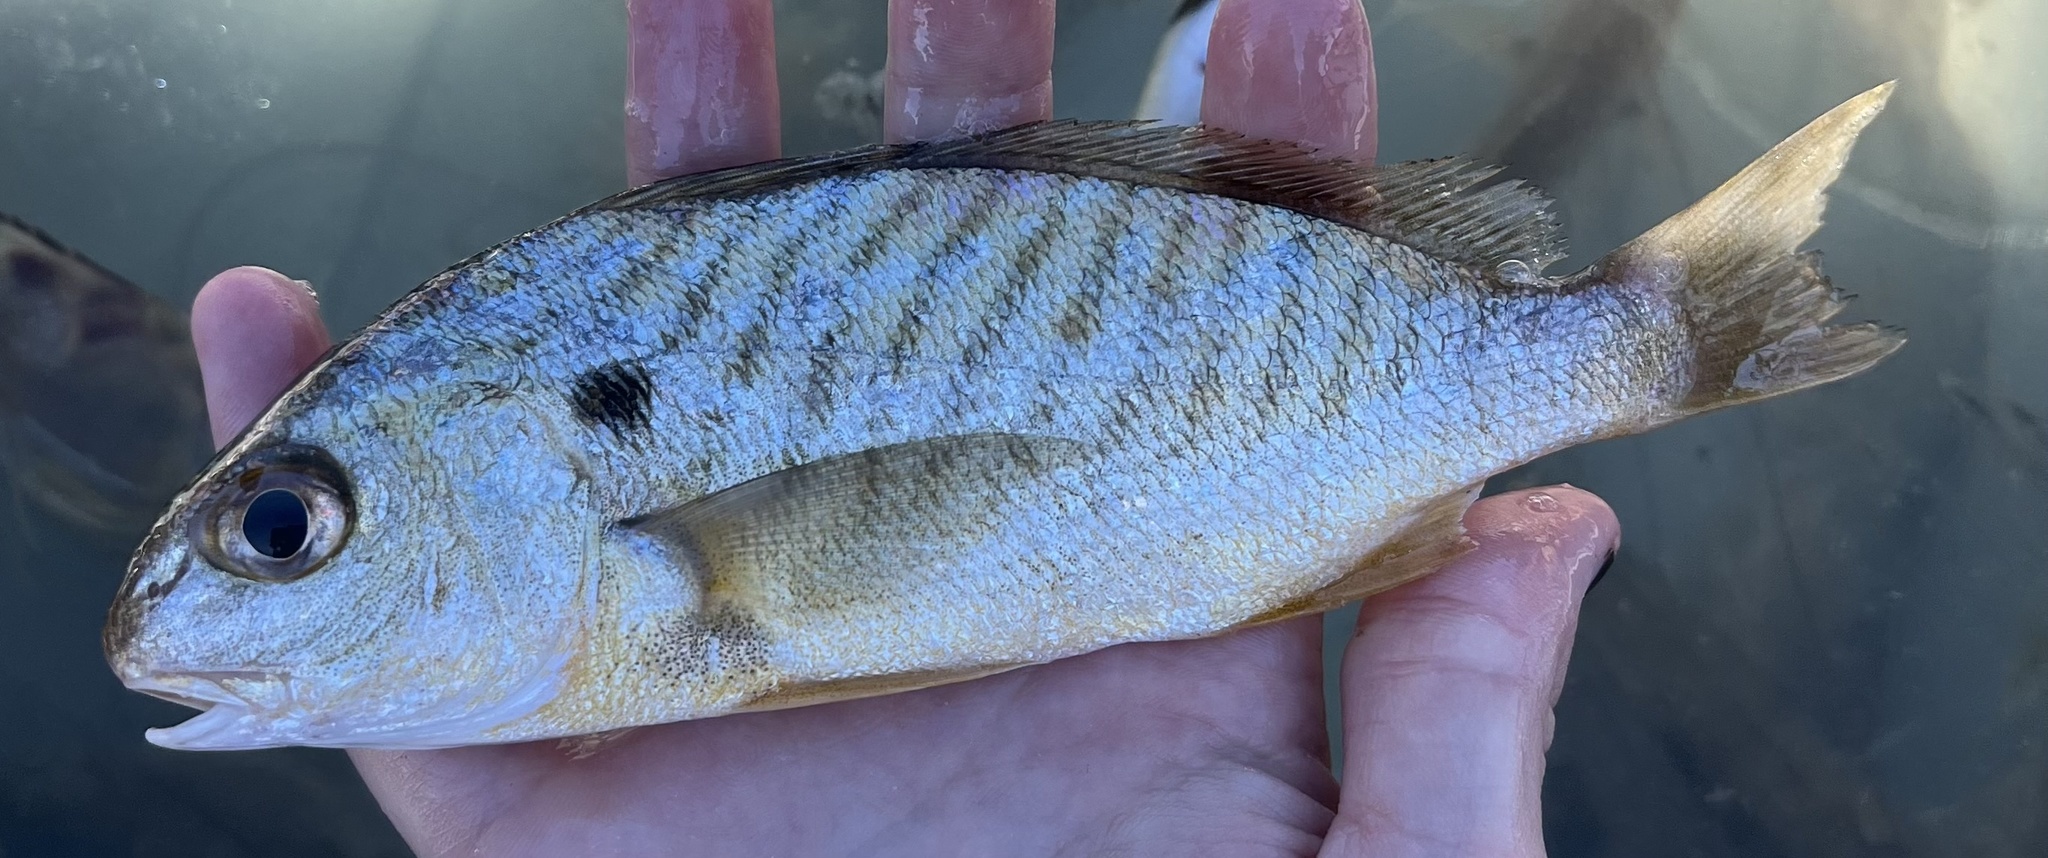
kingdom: Animalia
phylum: Chordata
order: Perciformes
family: Sciaenidae
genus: Leiostomus
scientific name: Leiostomus xanthurus
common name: Spot
